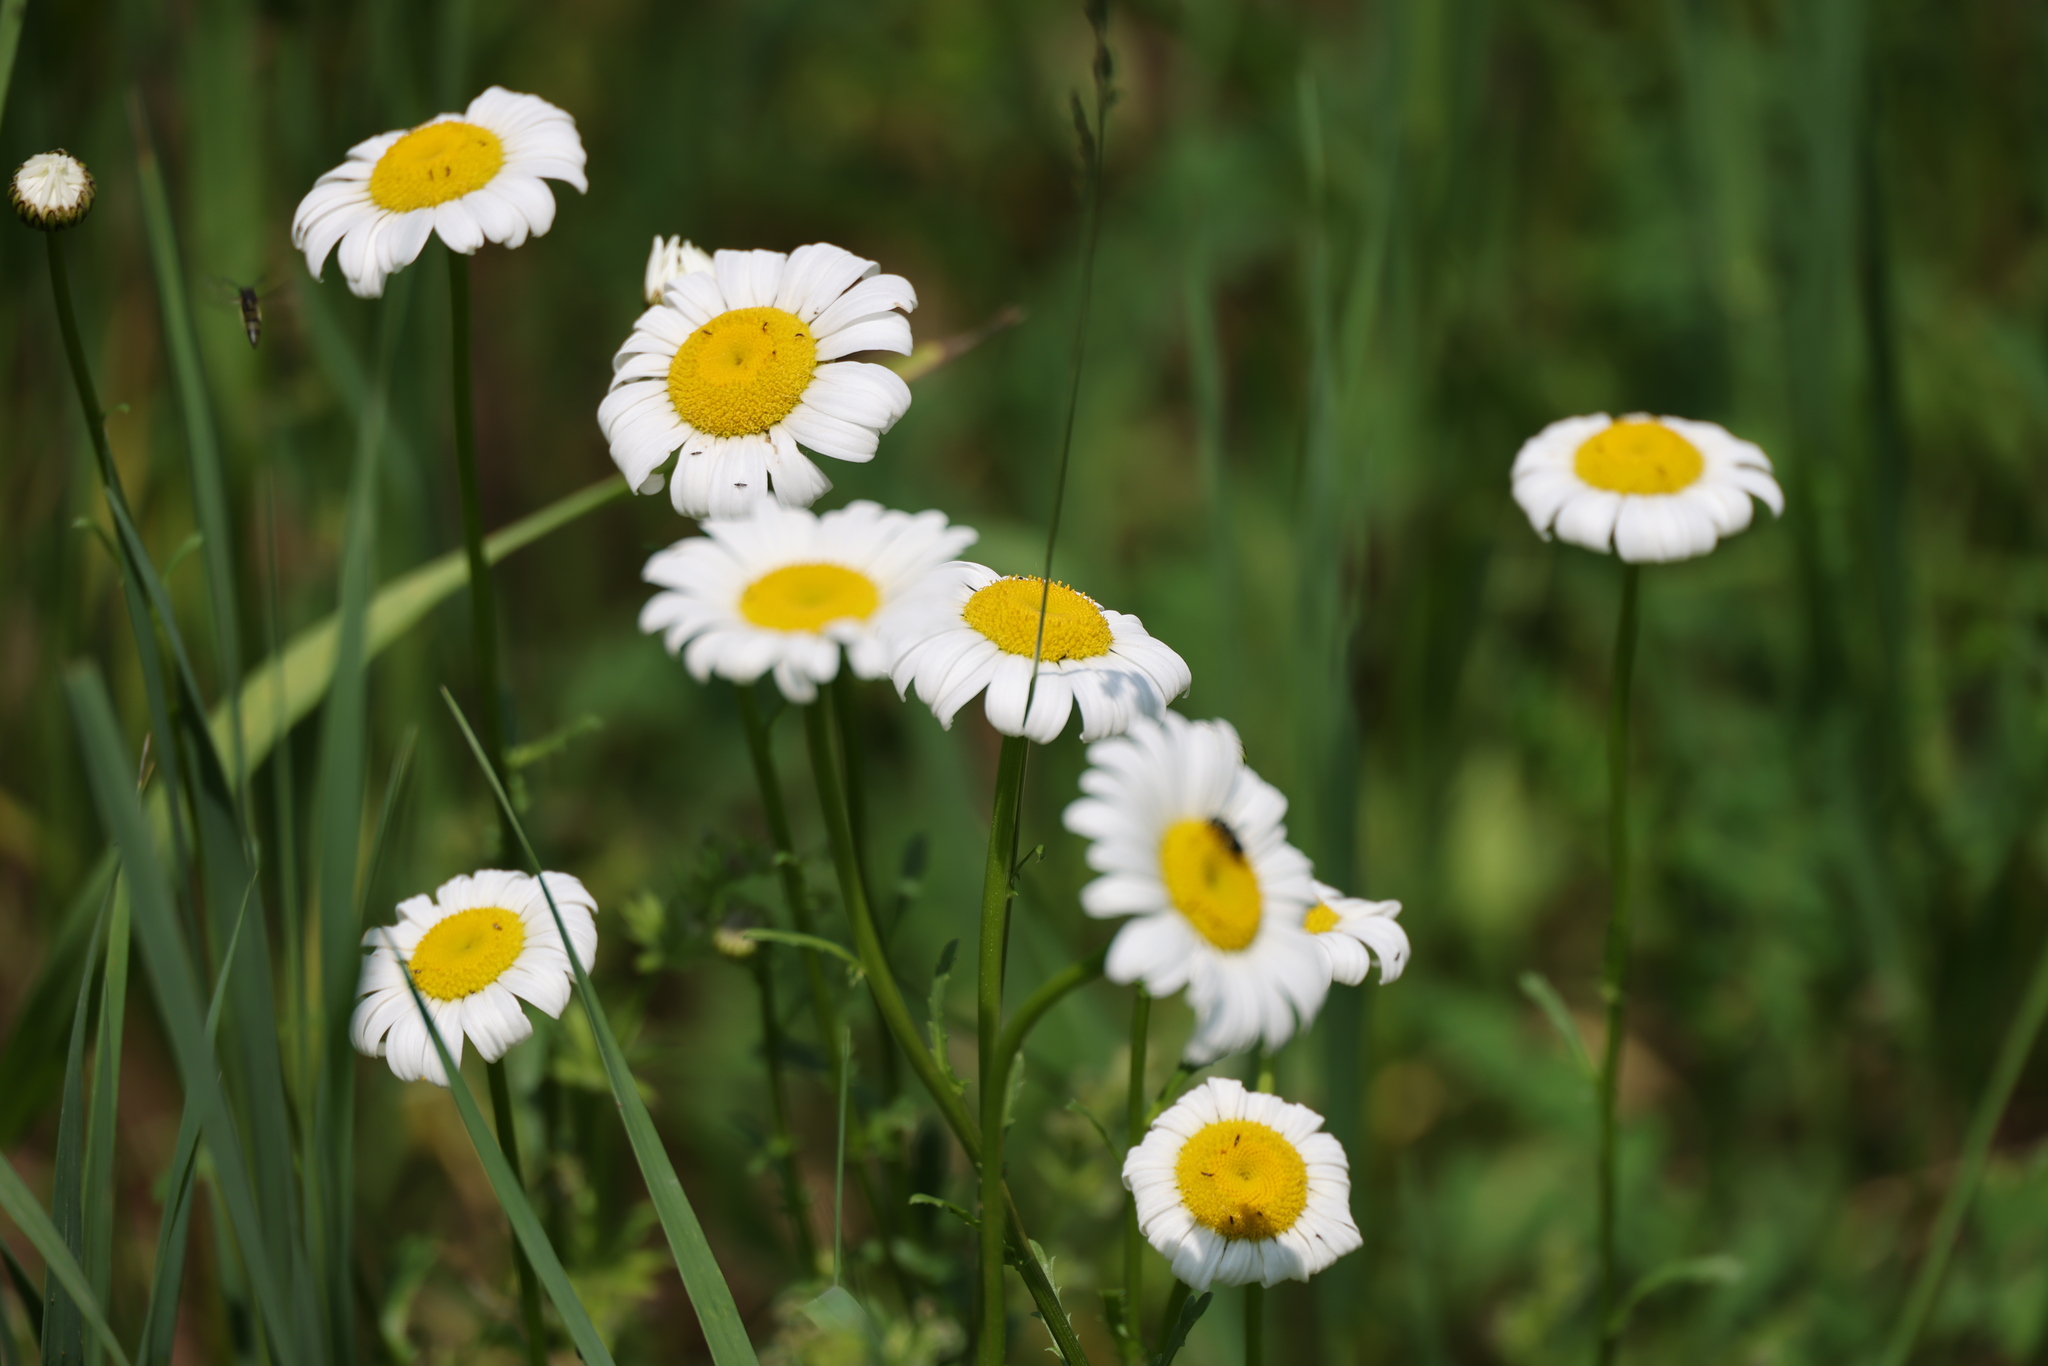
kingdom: Plantae
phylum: Tracheophyta
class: Magnoliopsida
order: Asterales
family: Asteraceae
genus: Leucanthemum
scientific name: Leucanthemum vulgare
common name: Oxeye daisy
